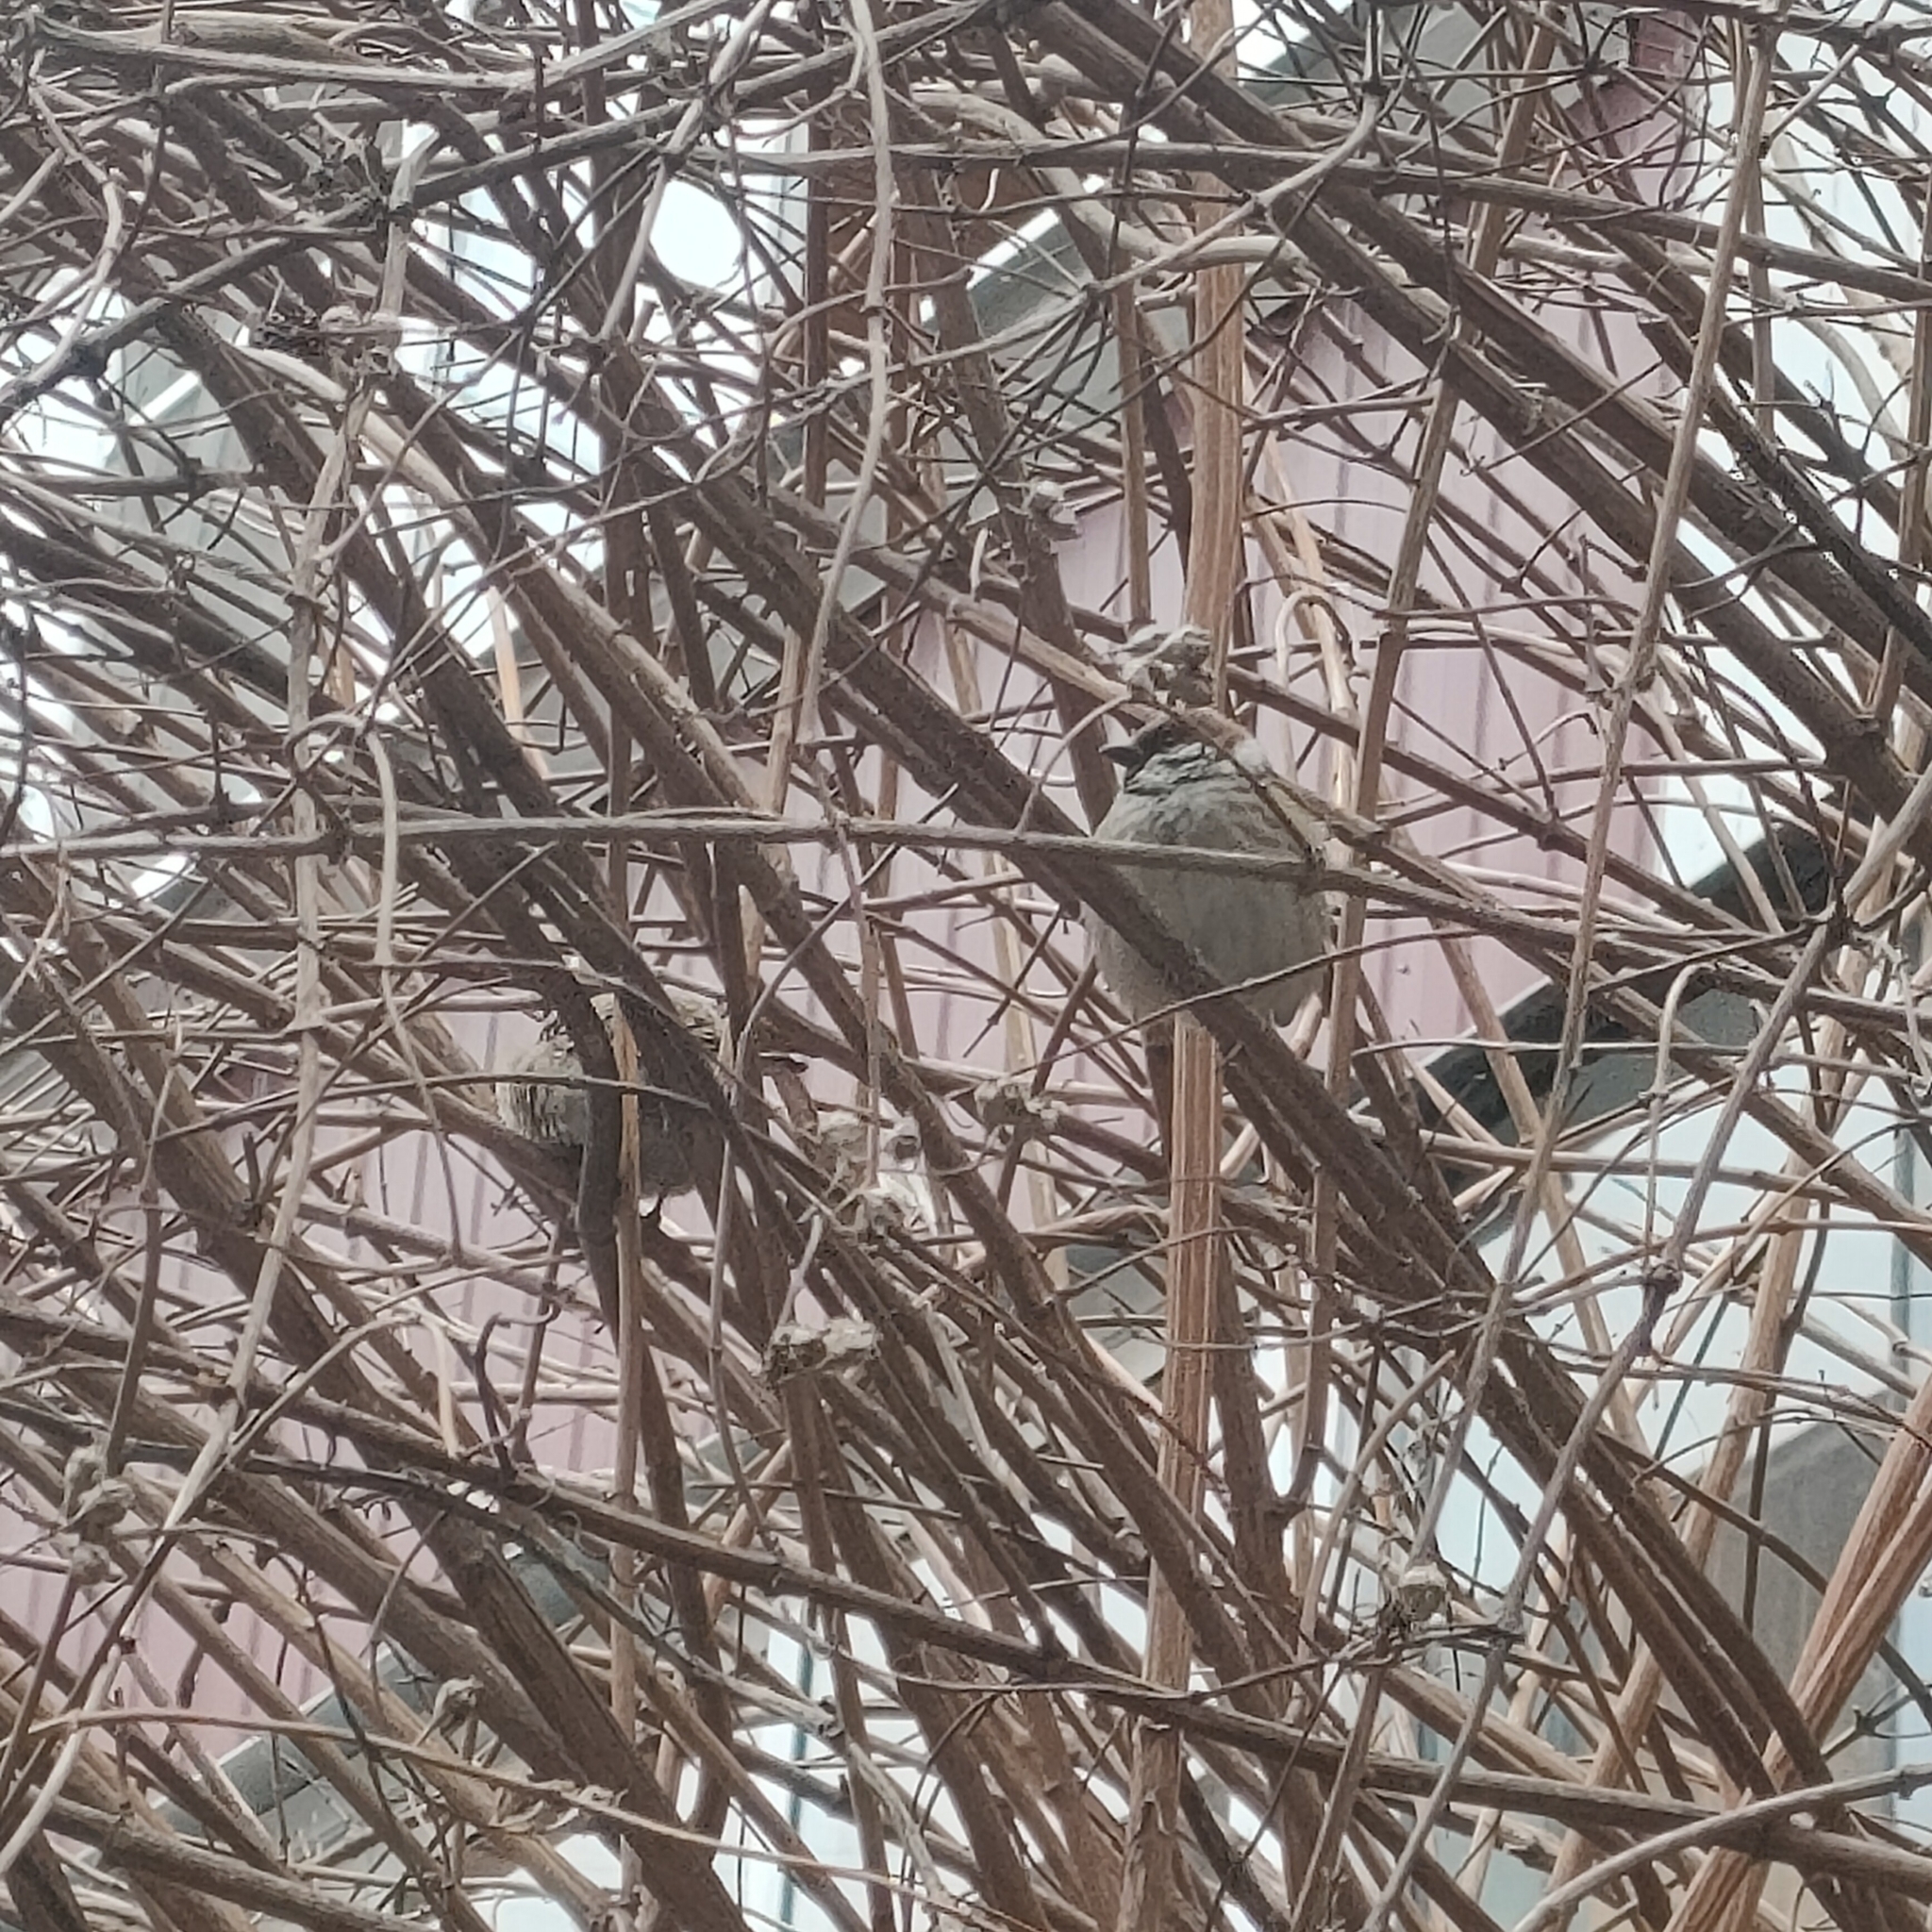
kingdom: Animalia
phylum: Chordata
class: Aves
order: Passeriformes
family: Passeridae
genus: Passer
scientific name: Passer montanus
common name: Eurasian tree sparrow
